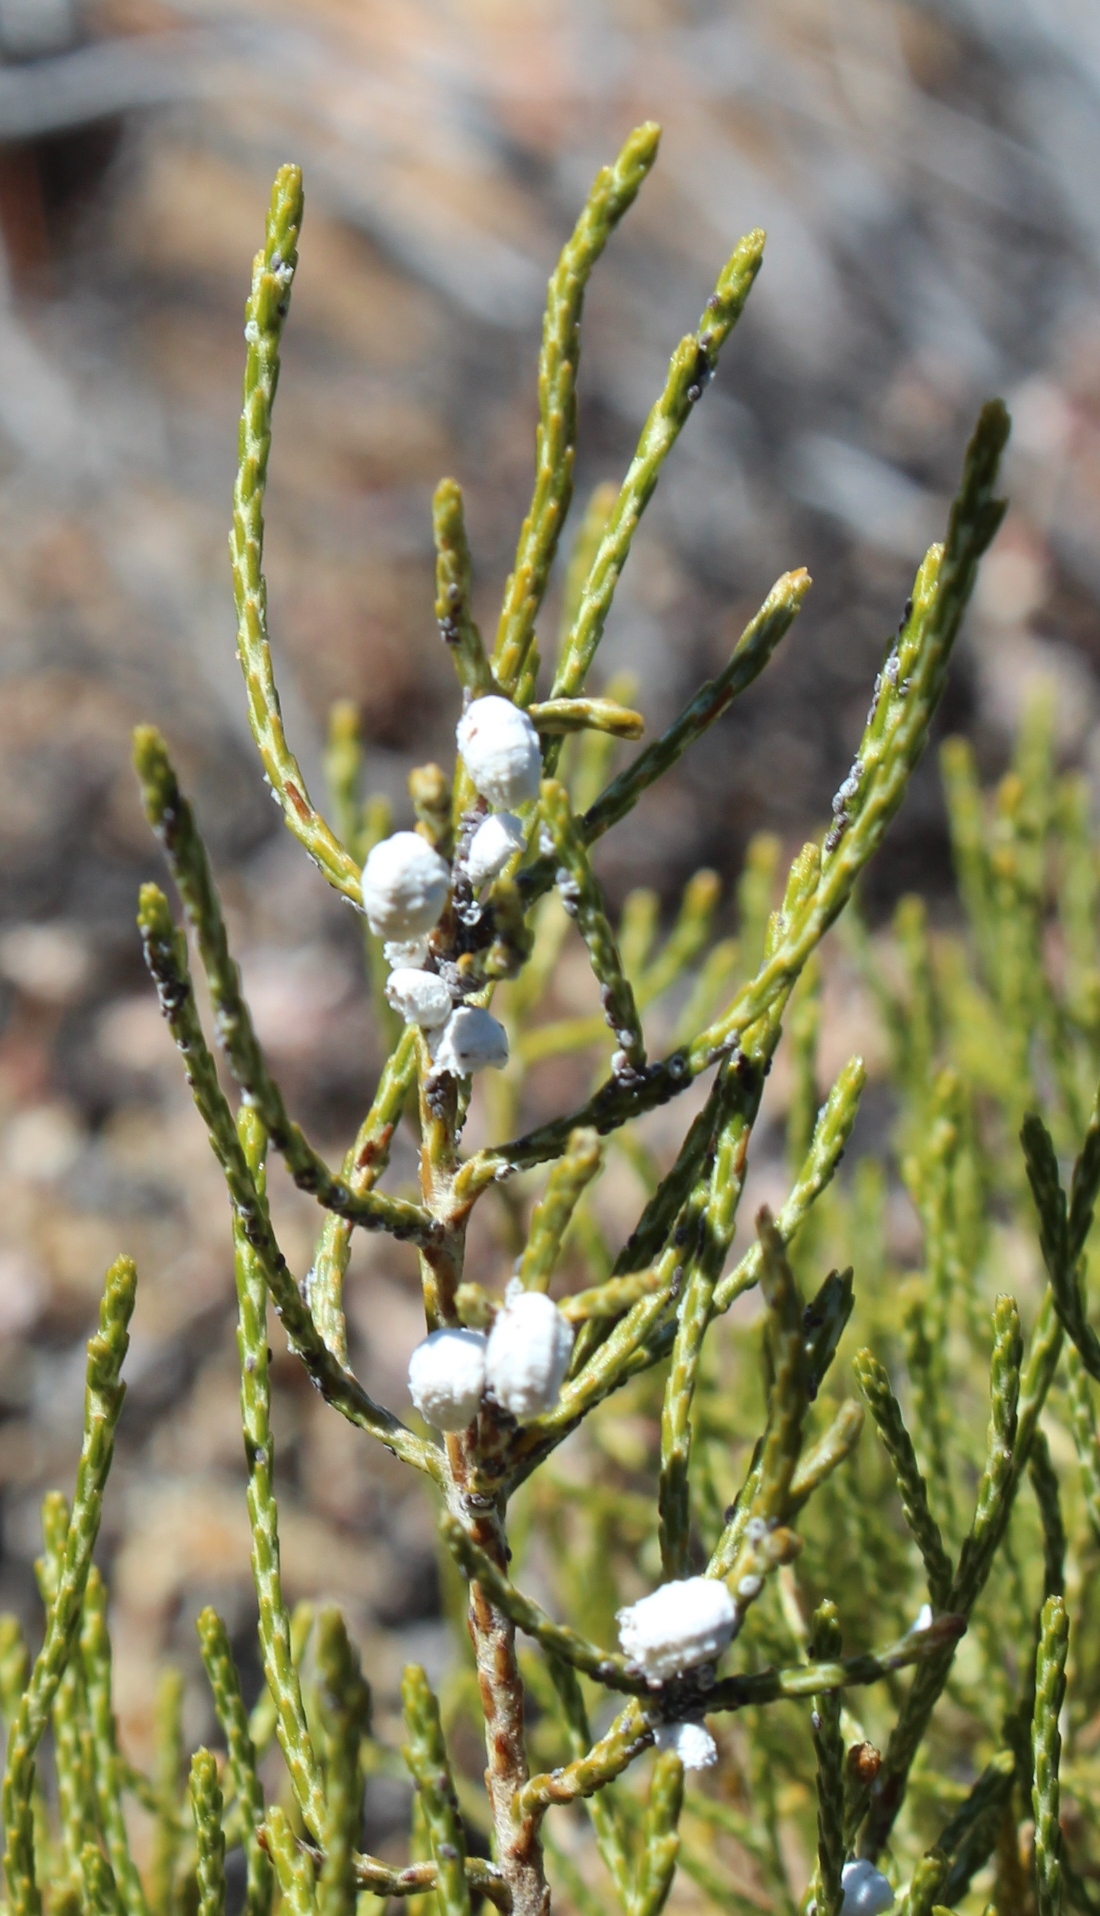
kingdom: Animalia
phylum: Arthropoda
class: Insecta
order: Hemiptera
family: Pseudococcidae
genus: Octococcus
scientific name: Octococcus africanus
